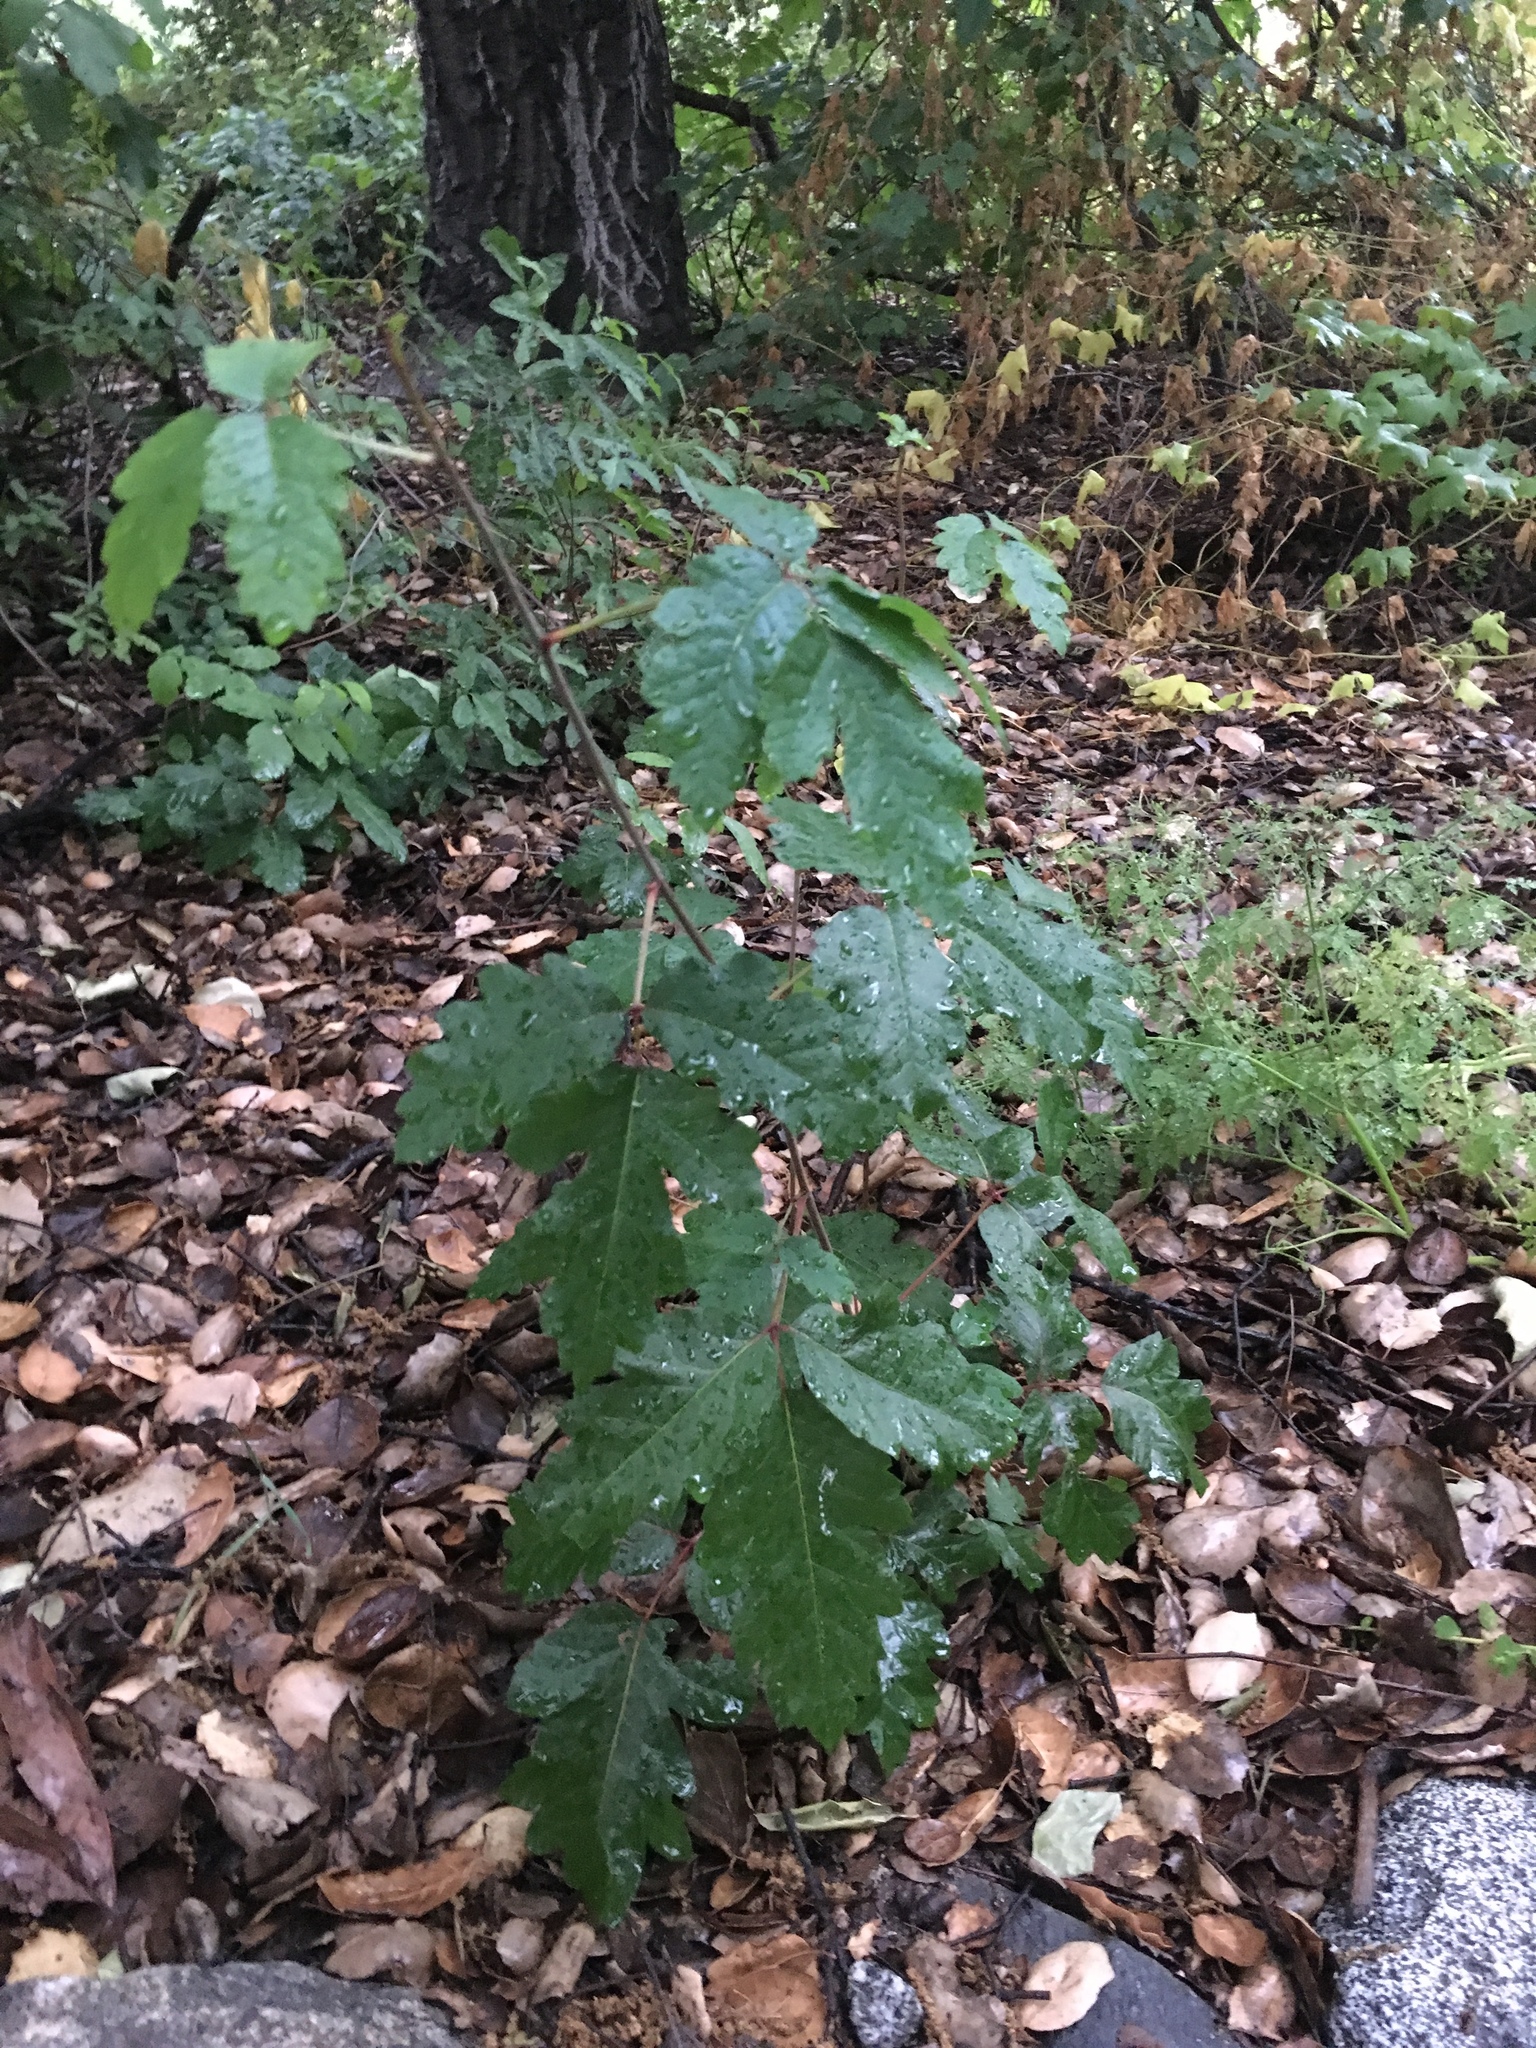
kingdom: Plantae
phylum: Tracheophyta
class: Magnoliopsida
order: Sapindales
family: Anacardiaceae
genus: Toxicodendron
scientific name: Toxicodendron diversilobum
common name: Pacific poison-oak
